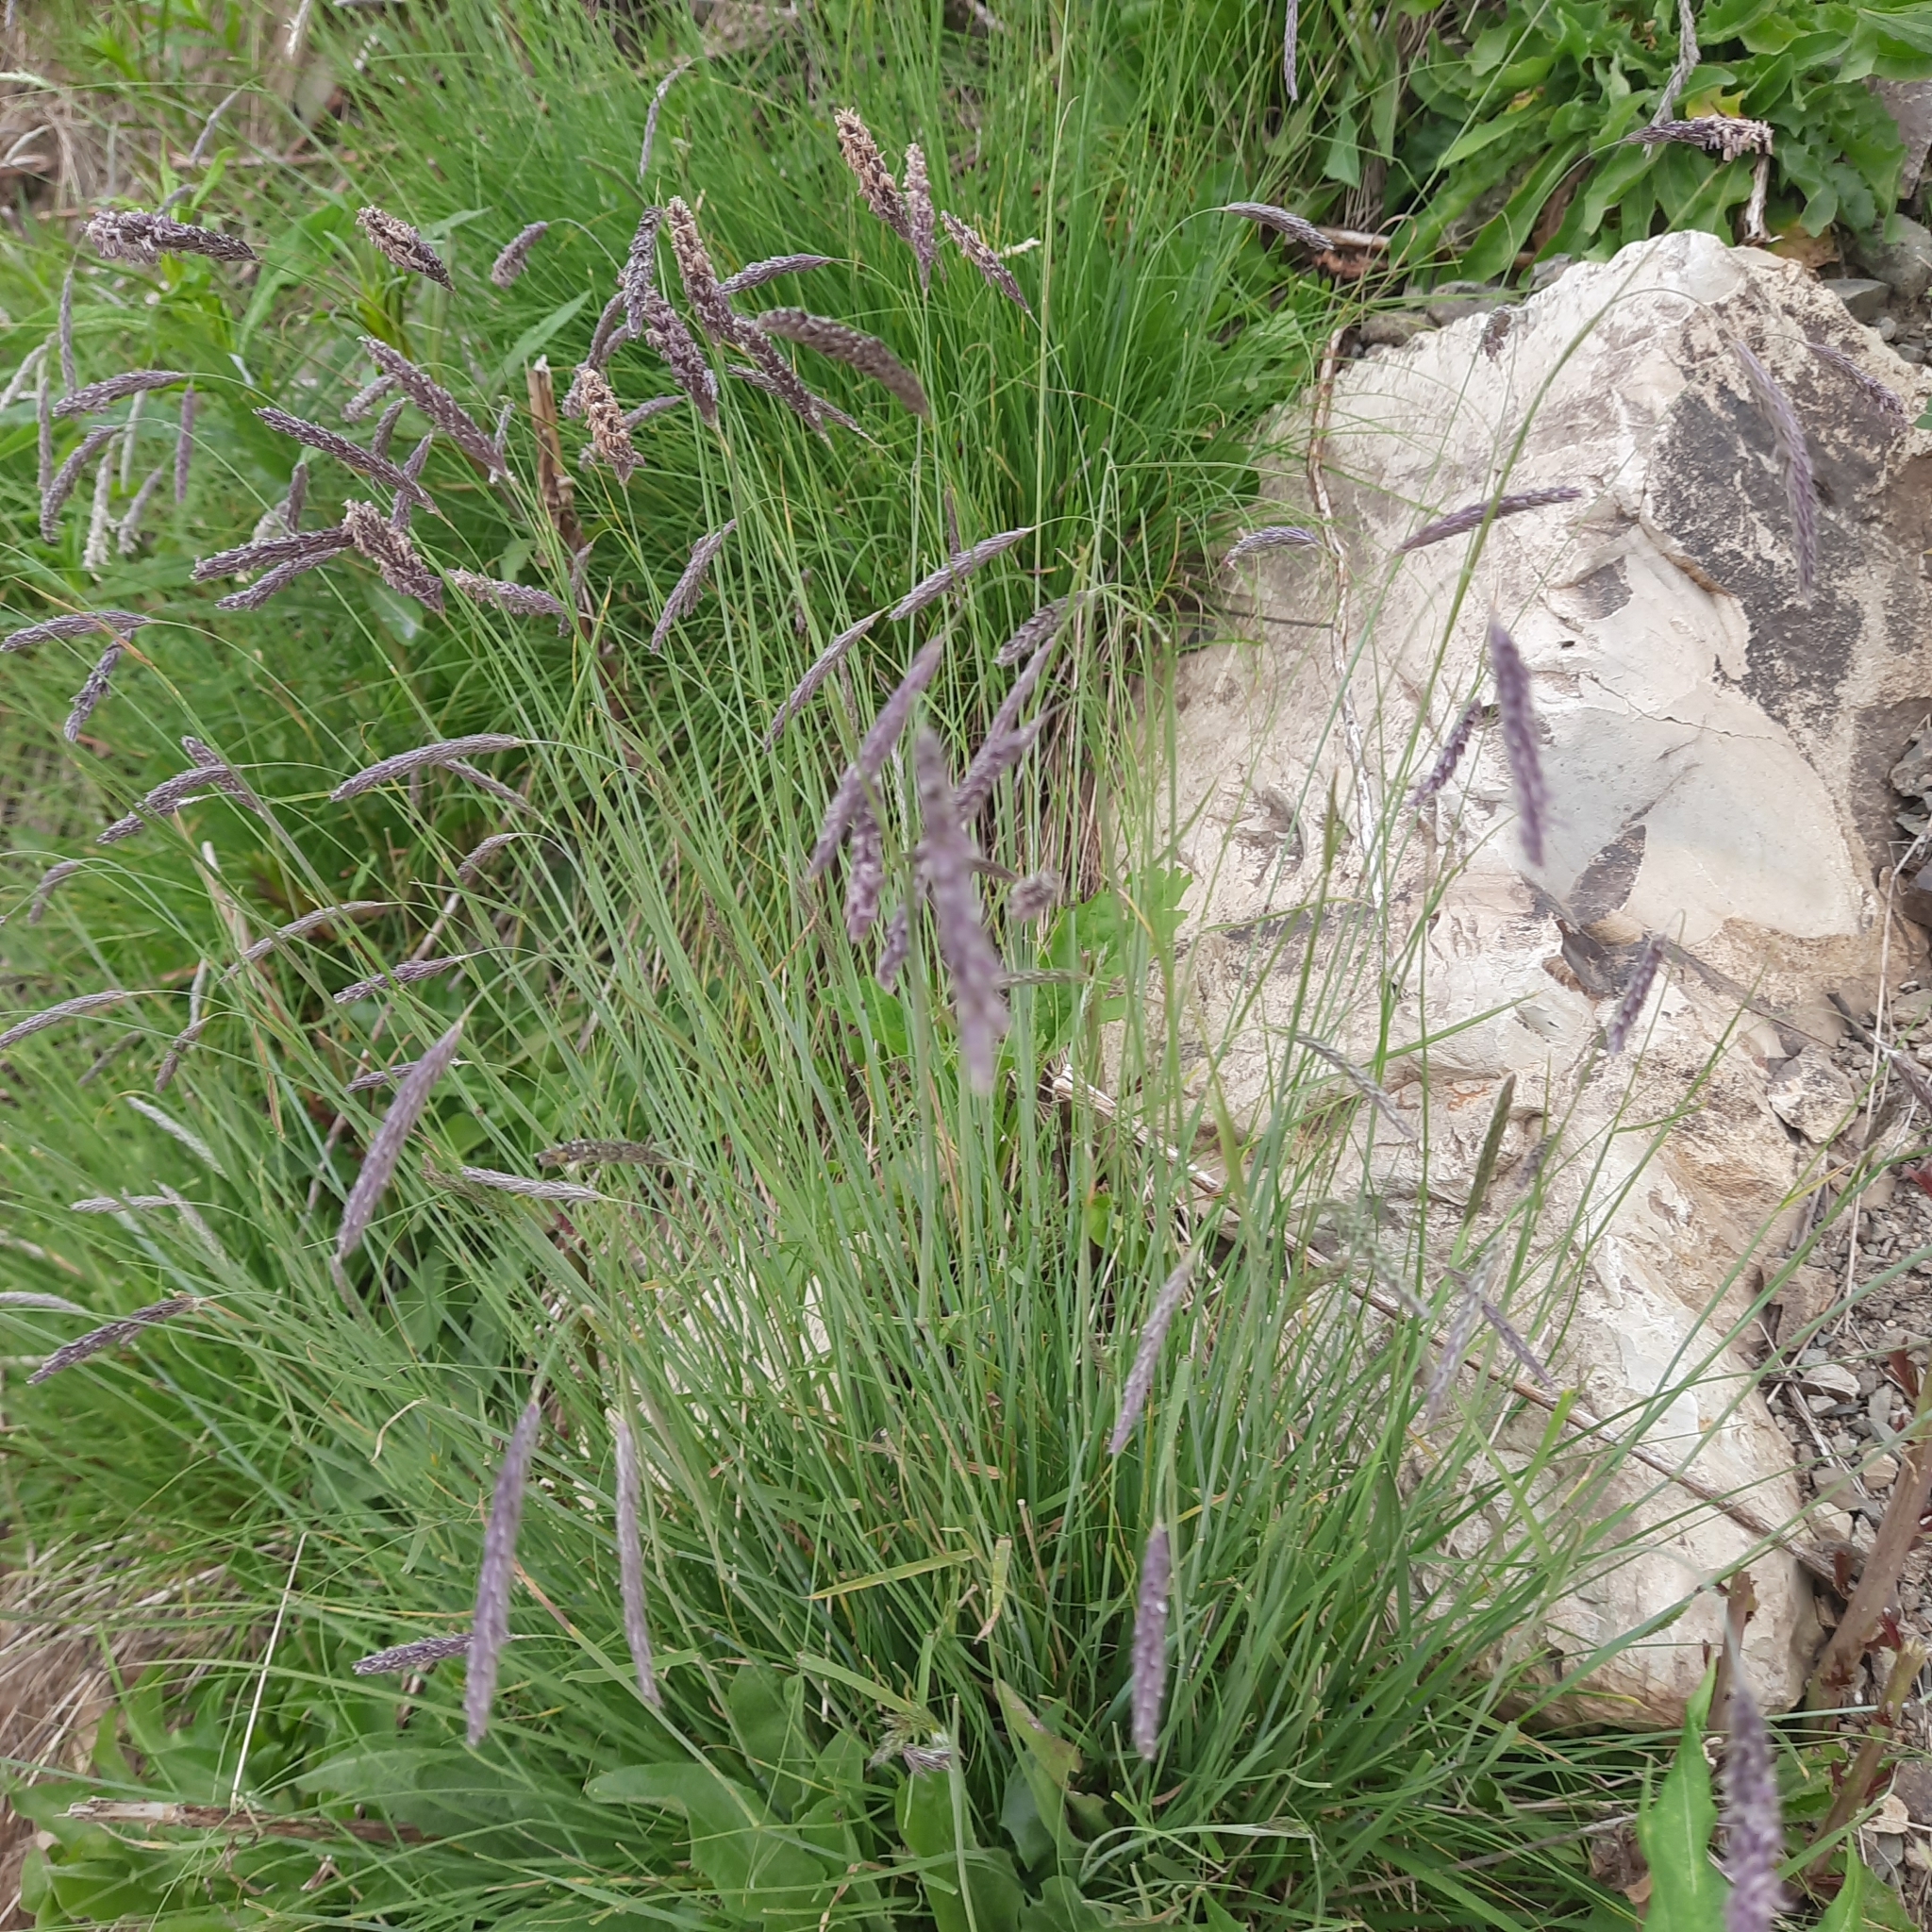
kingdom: Plantae
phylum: Tracheophyta
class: Liliopsida
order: Poales
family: Poaceae
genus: Alopecurus
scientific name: Alopecurus ponticus
